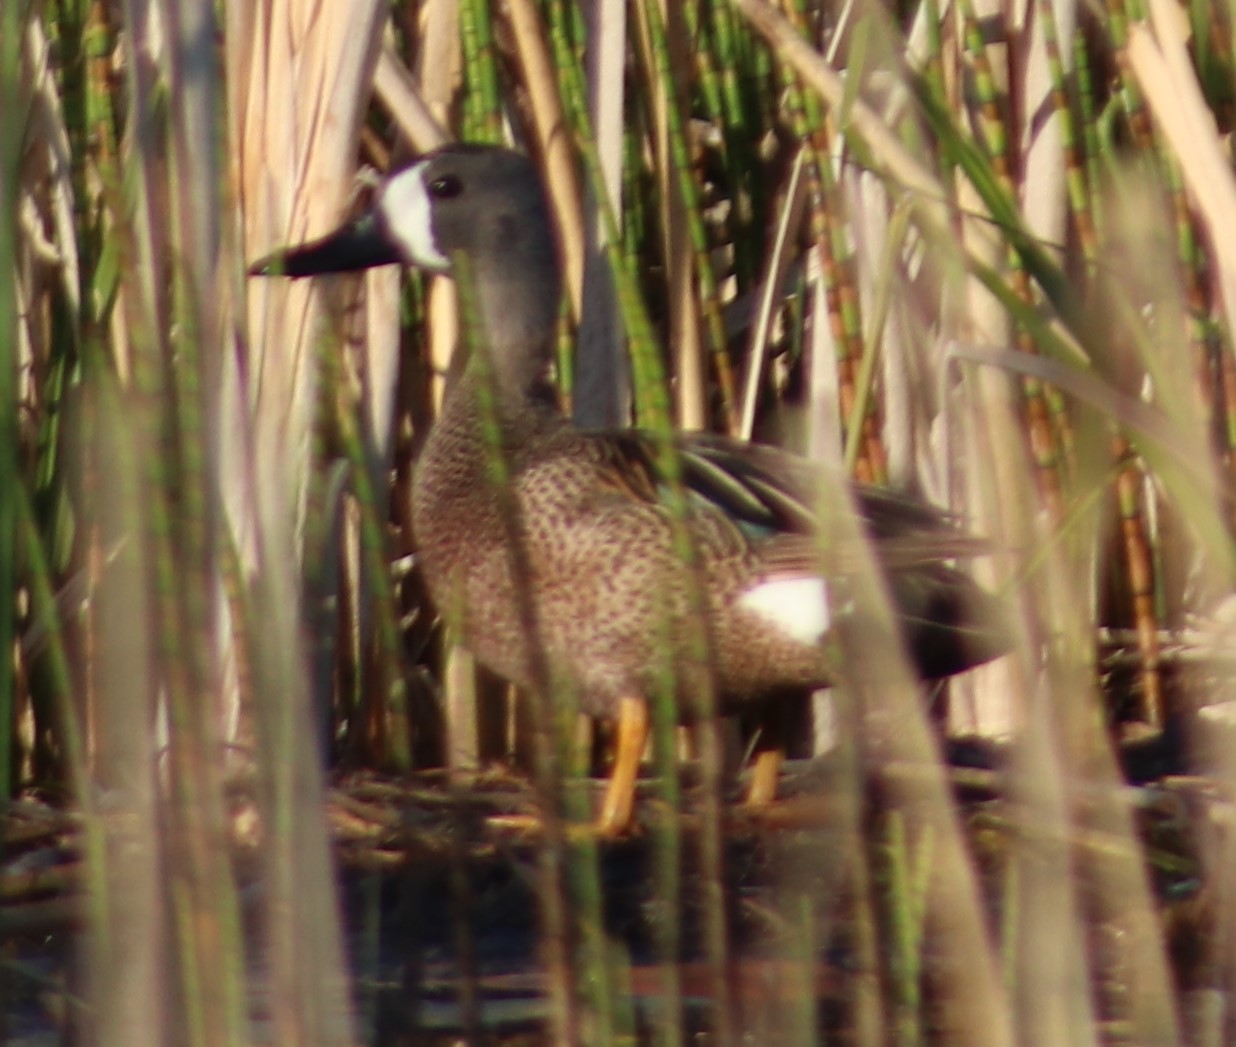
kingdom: Animalia
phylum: Chordata
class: Aves
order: Anseriformes
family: Anatidae
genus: Spatula
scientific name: Spatula discors
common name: Blue-winged teal
